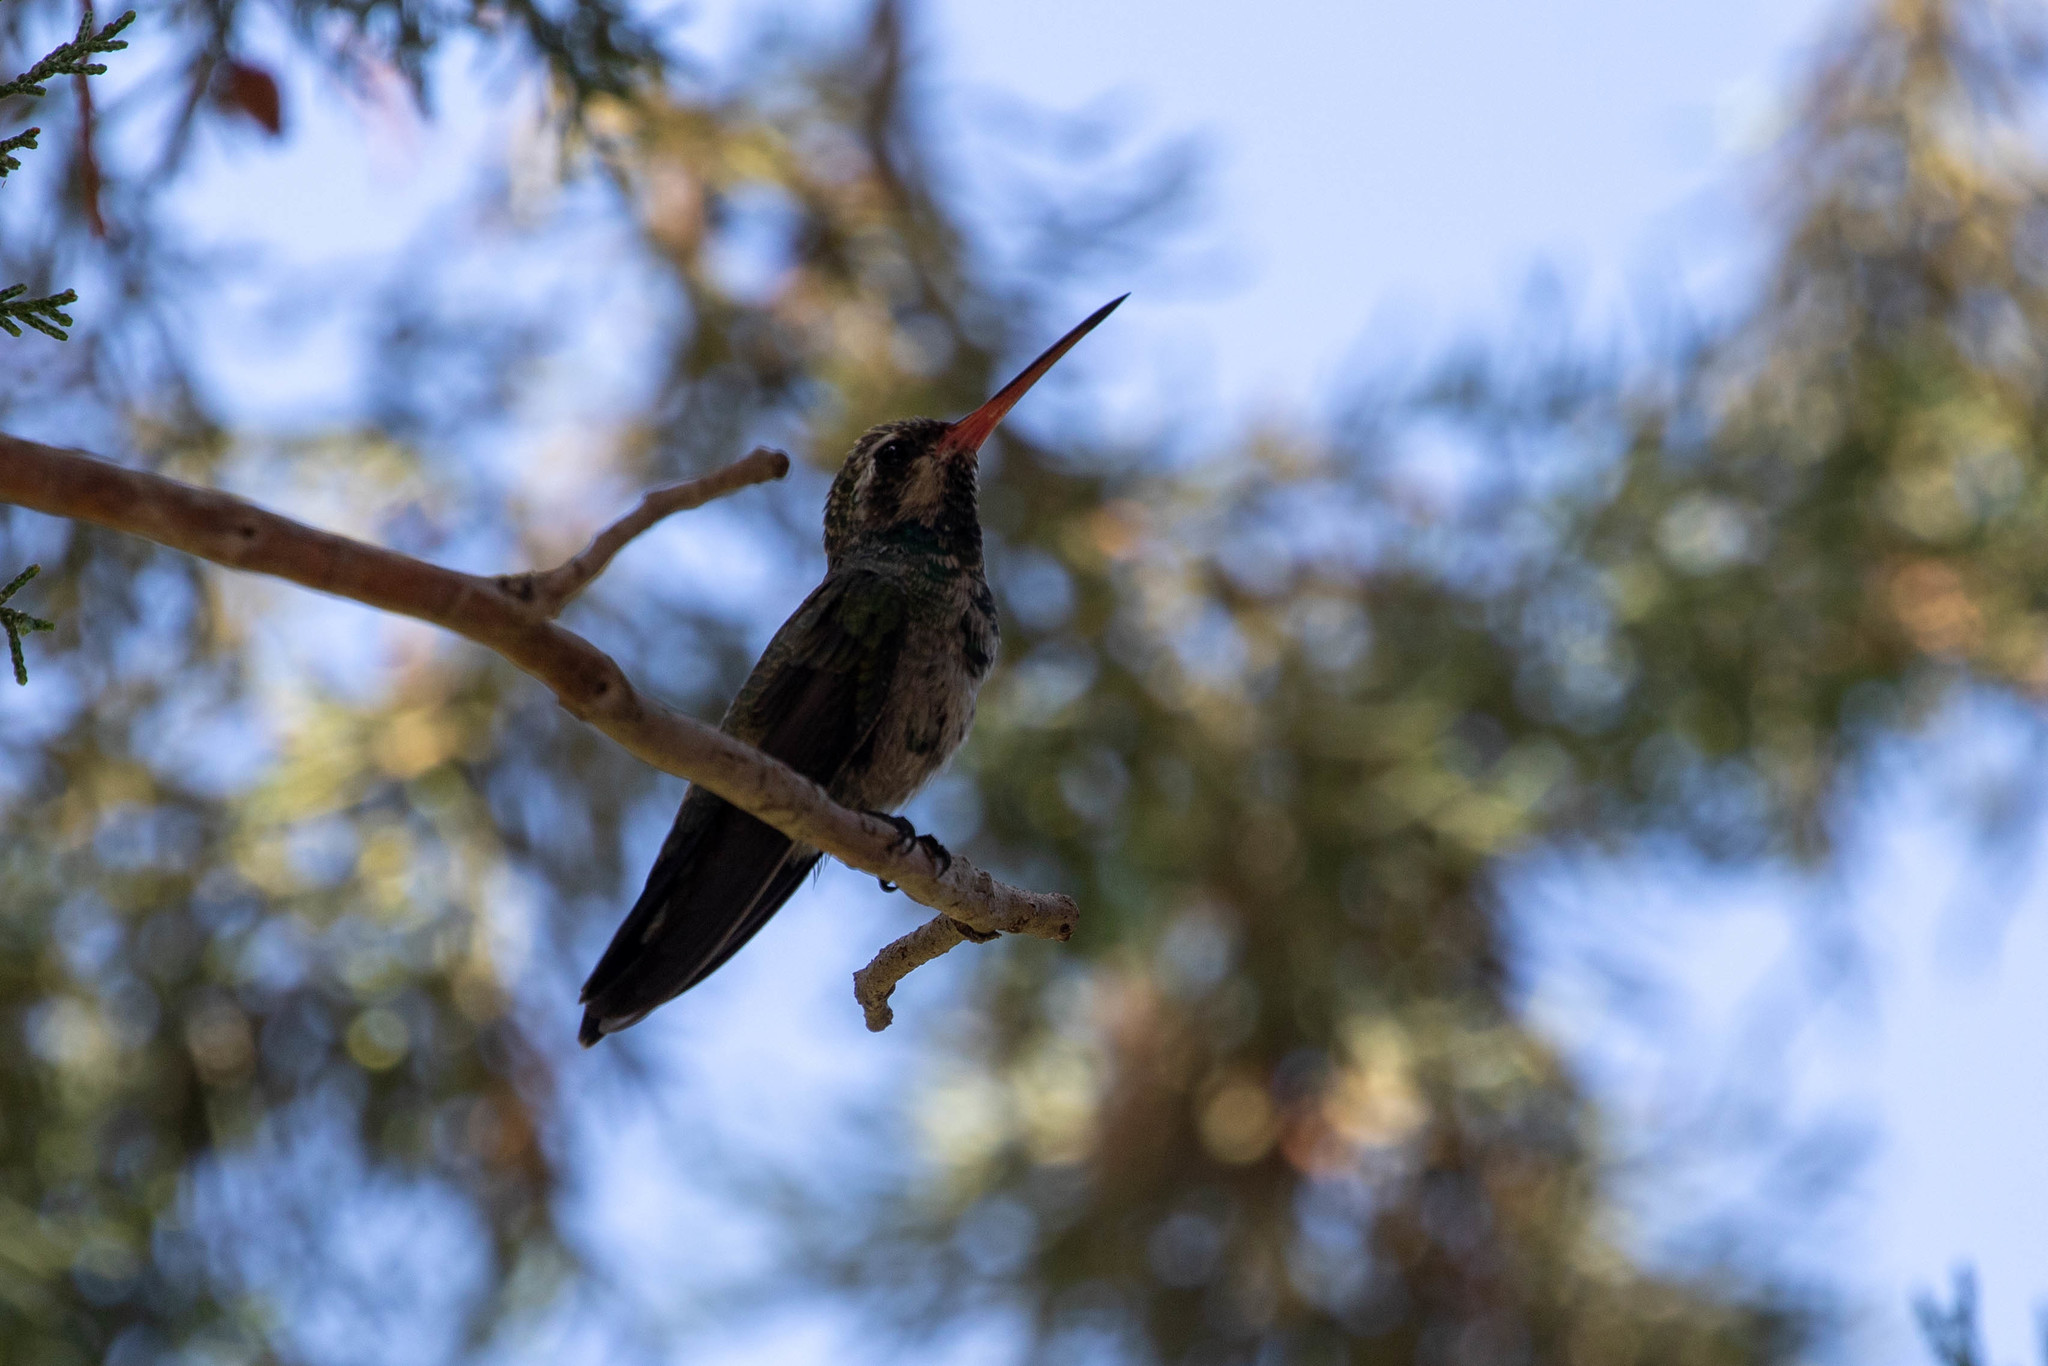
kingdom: Animalia
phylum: Chordata
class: Aves
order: Apodiformes
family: Trochilidae
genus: Cynanthus
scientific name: Cynanthus latirostris
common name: Broad-billed hummingbird
